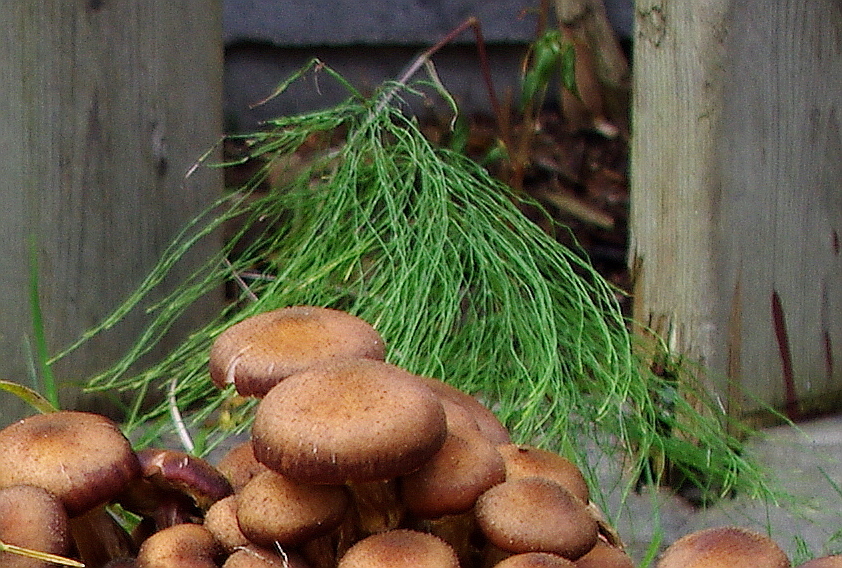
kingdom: Plantae
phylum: Tracheophyta
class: Polypodiopsida
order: Equisetales
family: Equisetaceae
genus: Equisetum
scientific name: Equisetum sylvaticum
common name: Wood horsetail
